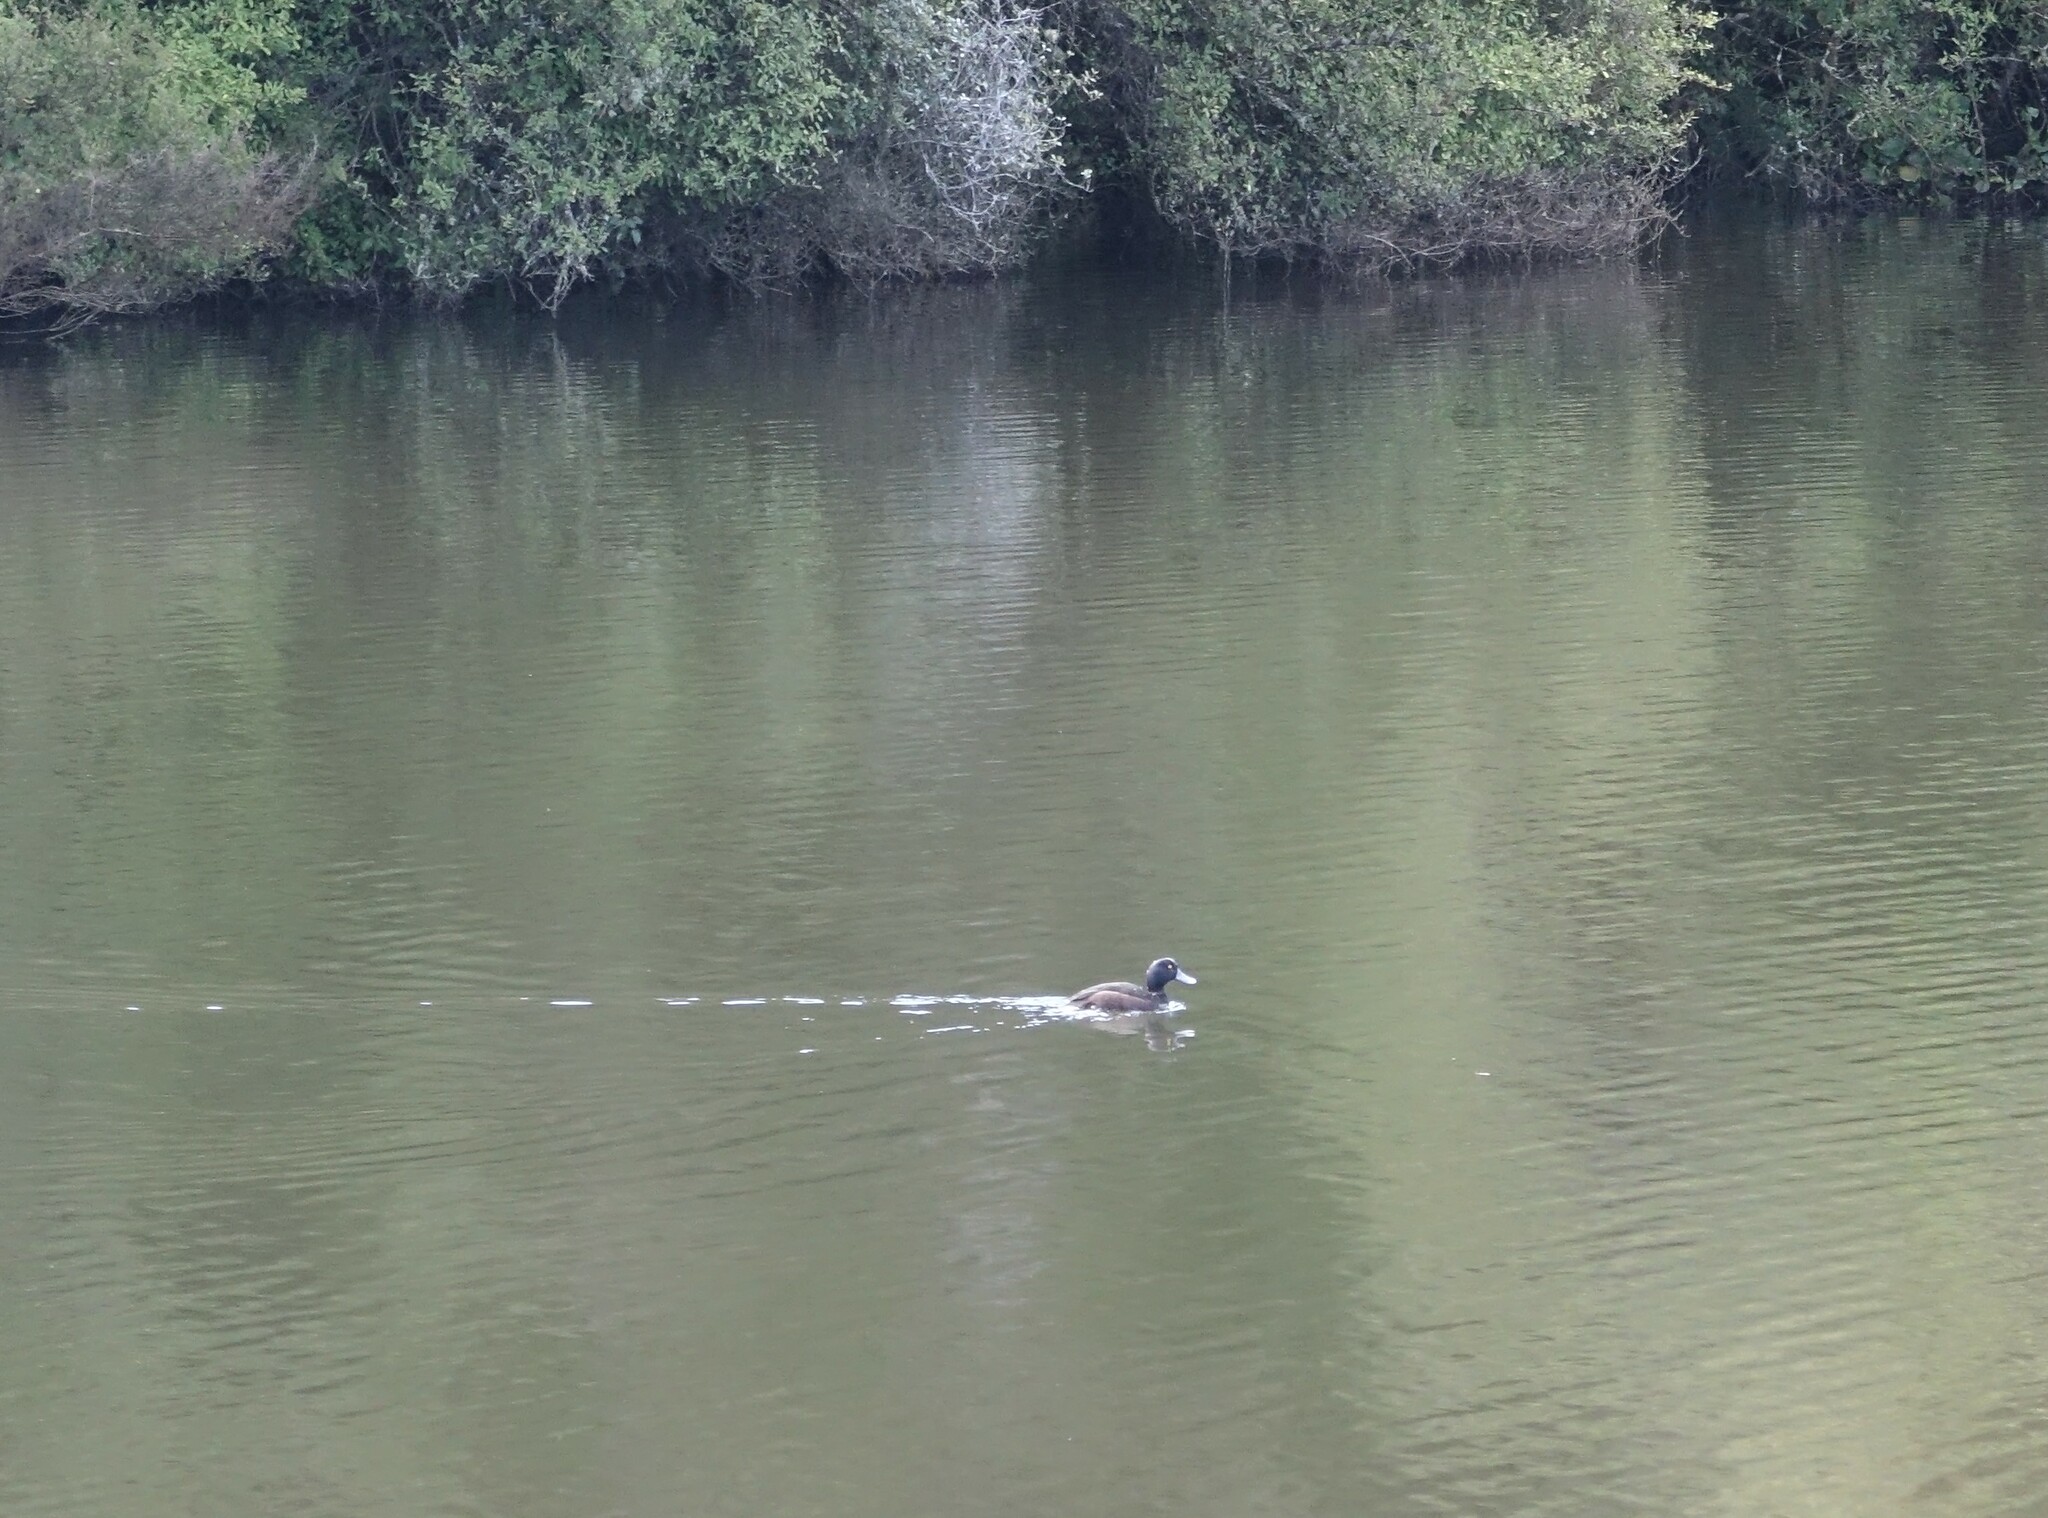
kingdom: Animalia
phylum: Chordata
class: Aves
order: Anseriformes
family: Anatidae
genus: Aythya
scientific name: Aythya novaeseelandiae
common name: New zealand scaup
